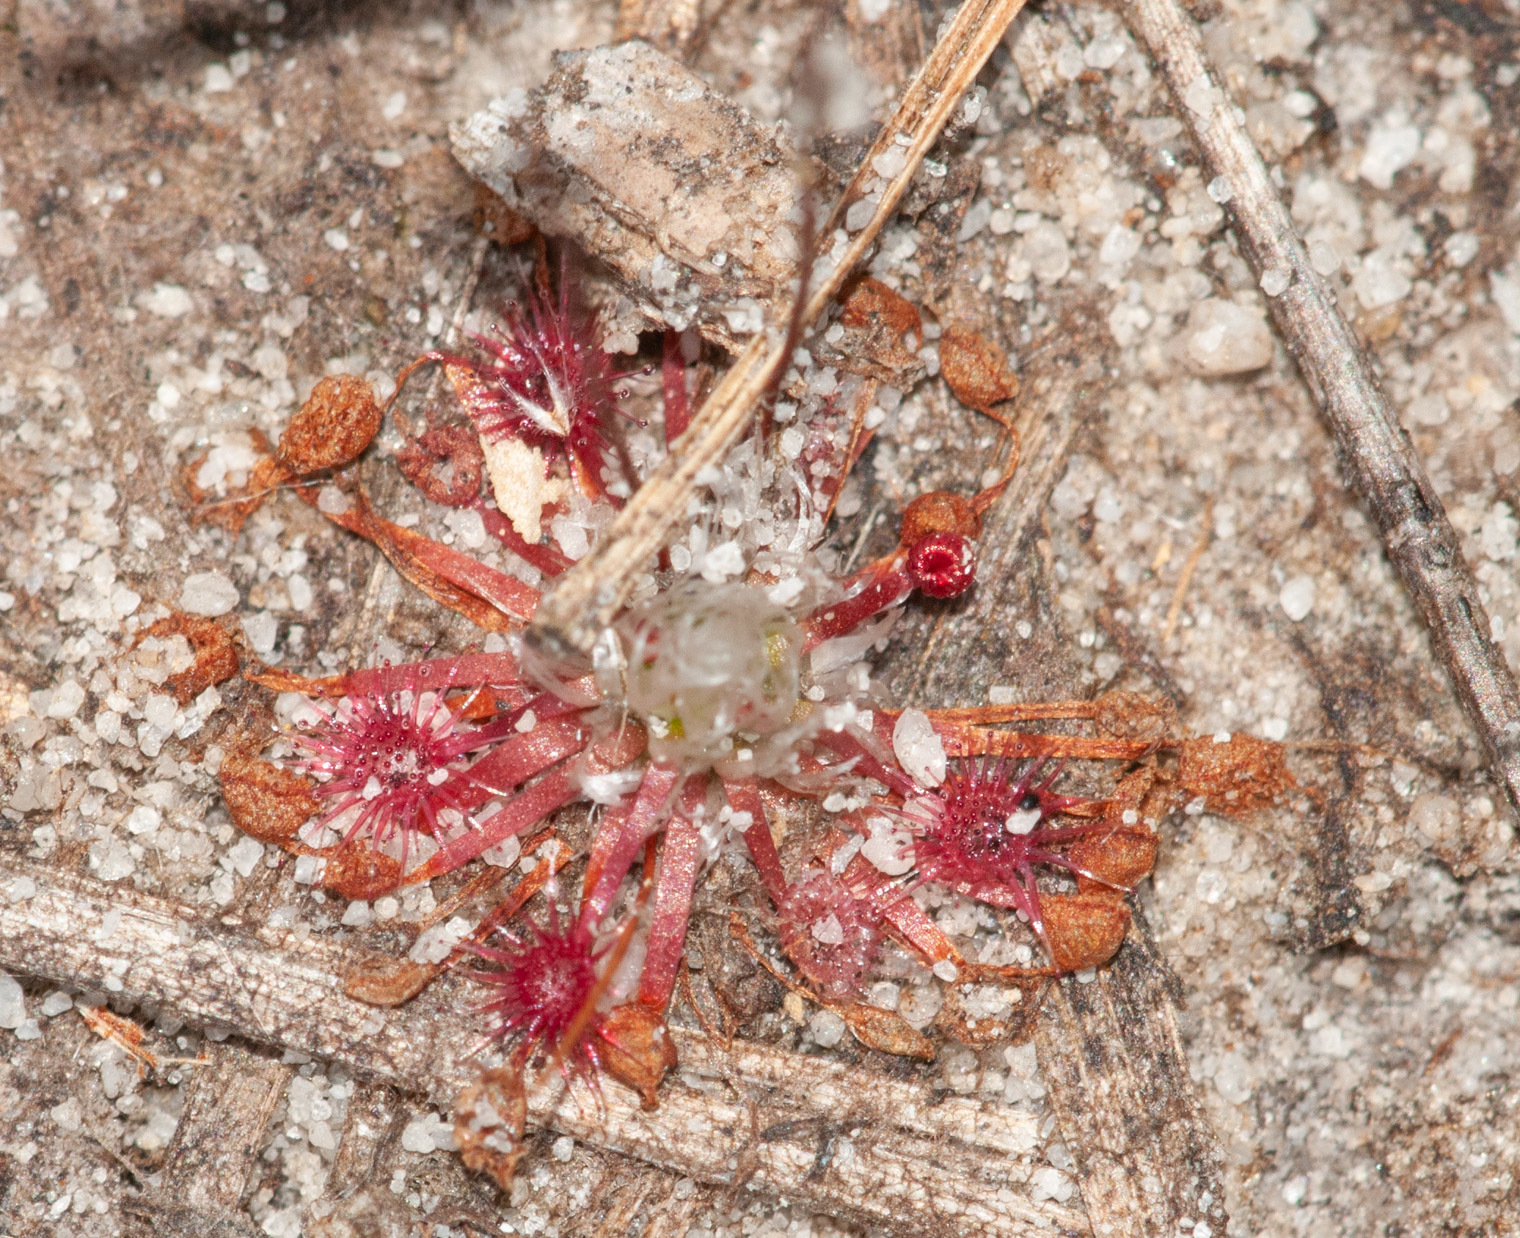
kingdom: Plantae
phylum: Tracheophyta
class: Magnoliopsida
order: Caryophyllales
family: Droseraceae
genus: Drosera
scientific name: Drosera pygmaea
